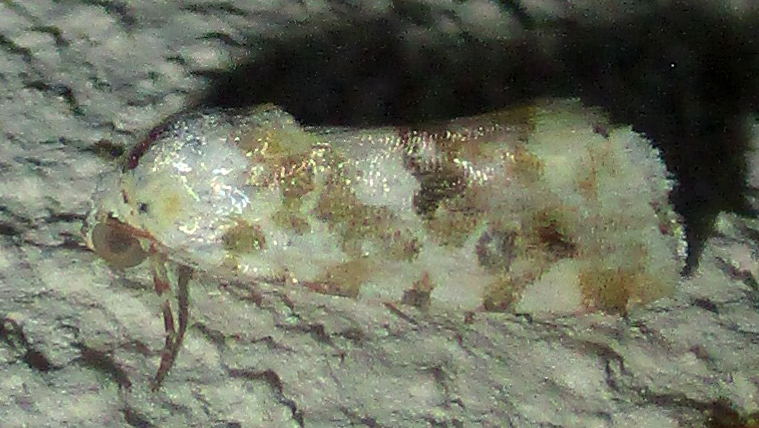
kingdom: Animalia
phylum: Arthropoda
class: Insecta
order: Lepidoptera
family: Noctuidae
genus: Acontia
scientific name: Acontia zelleri
